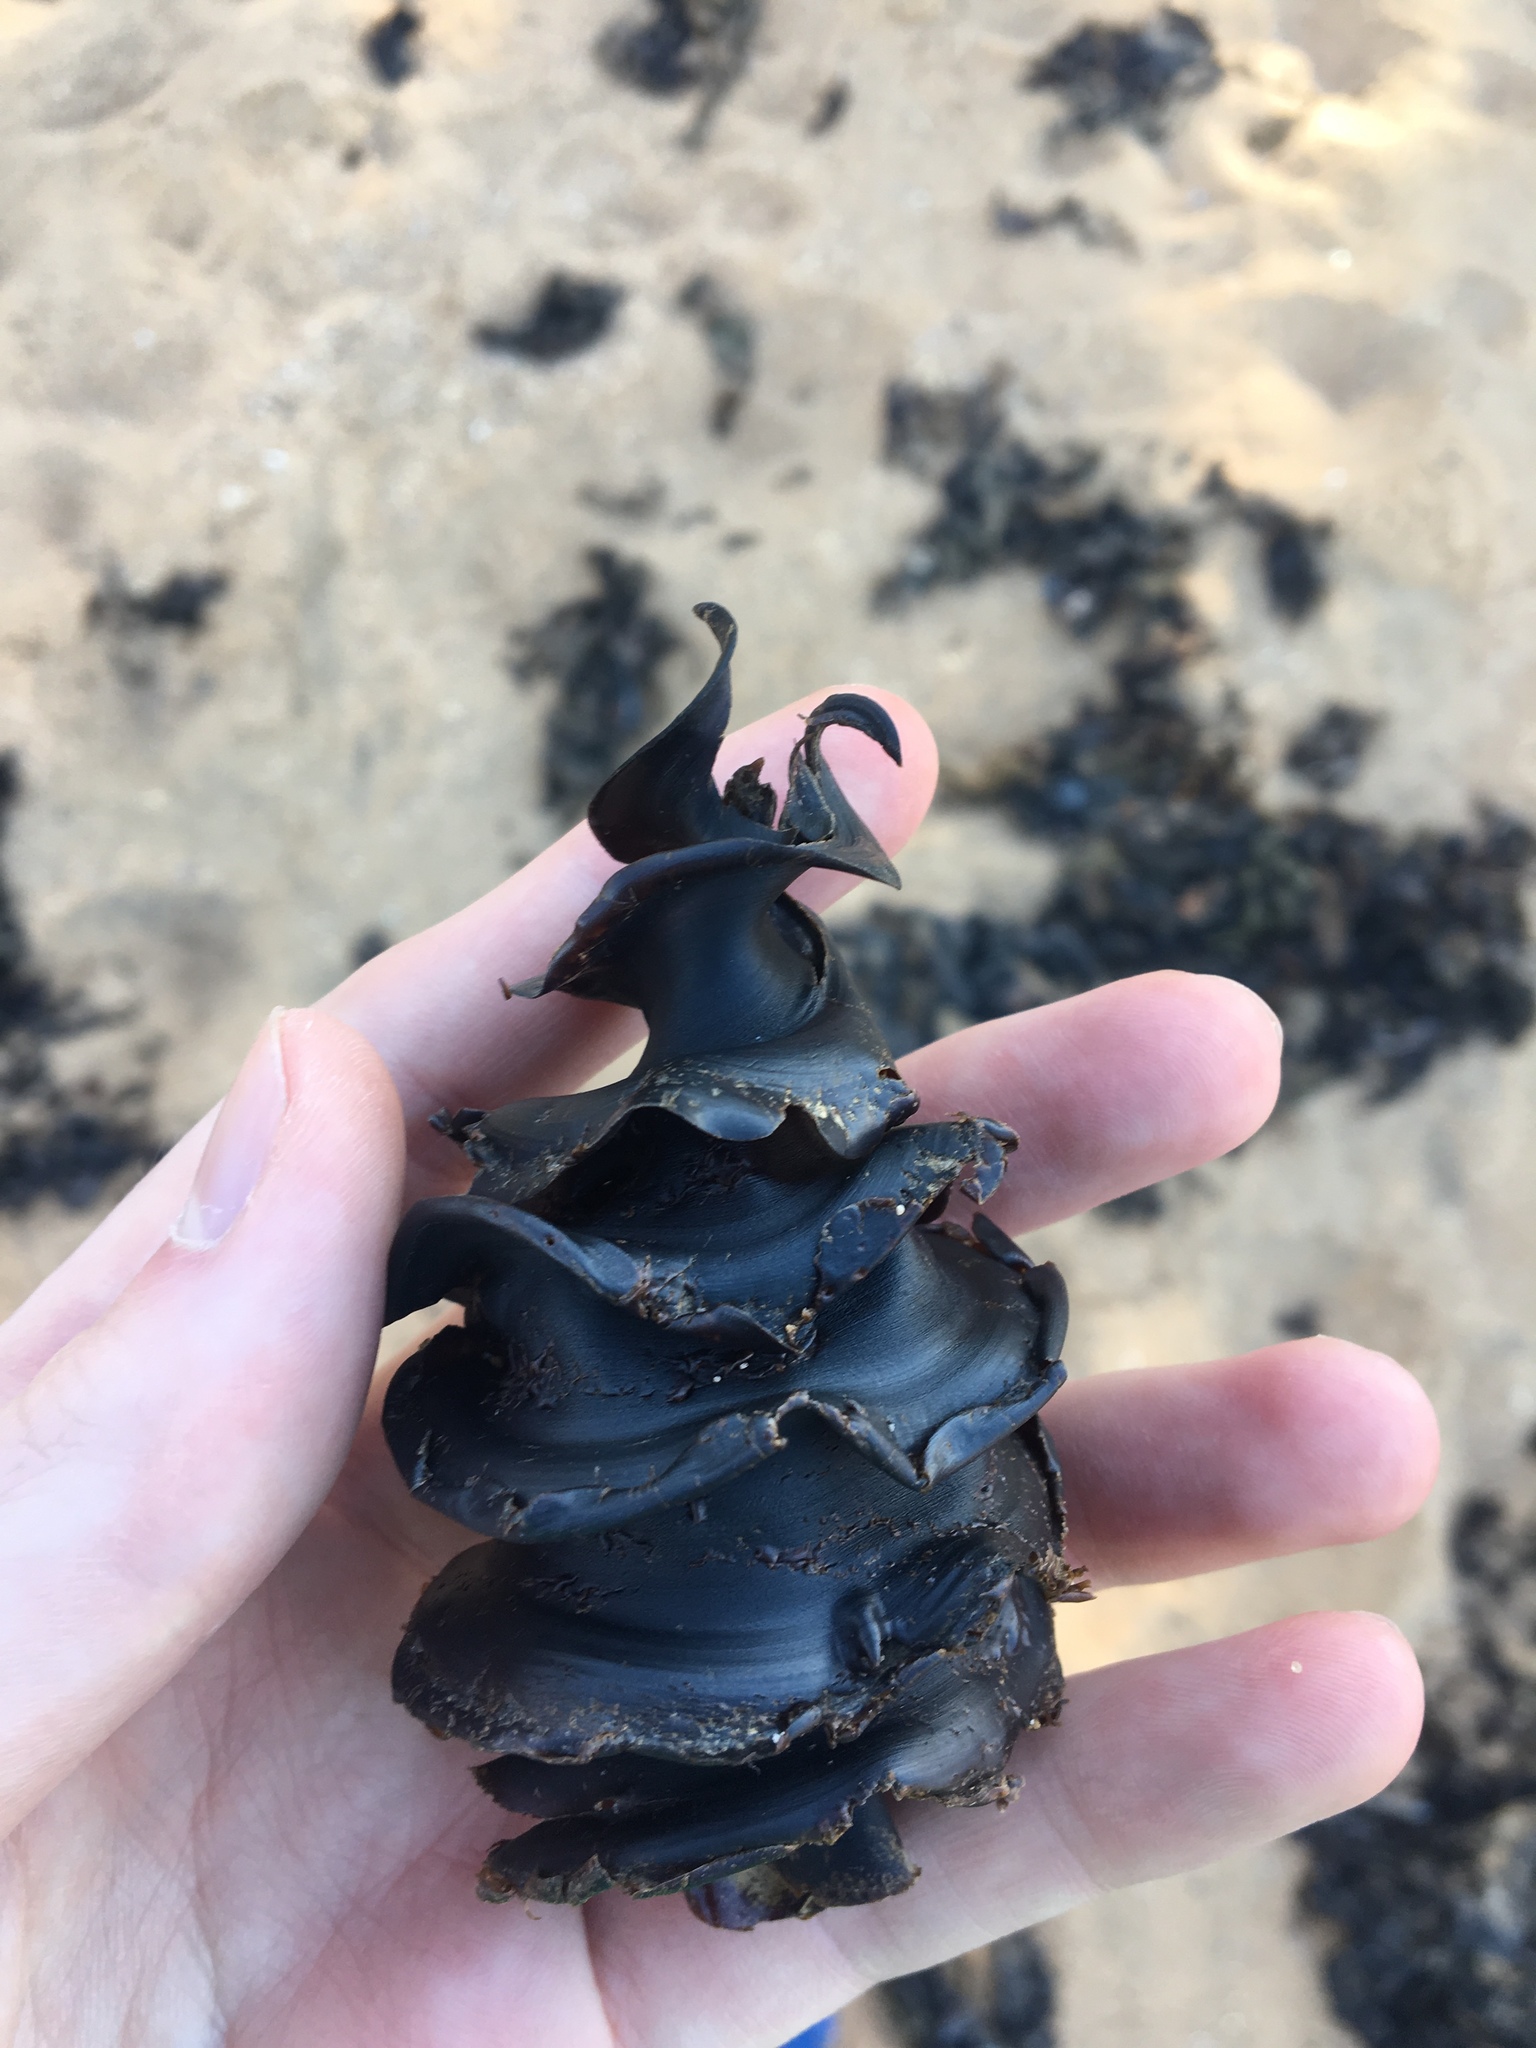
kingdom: Animalia
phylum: Chordata
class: Elasmobranchii
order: Heterodontiformes
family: Heterodontidae
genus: Heterodontus
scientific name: Heterodontus galeatus
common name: Crested bullhead shark
